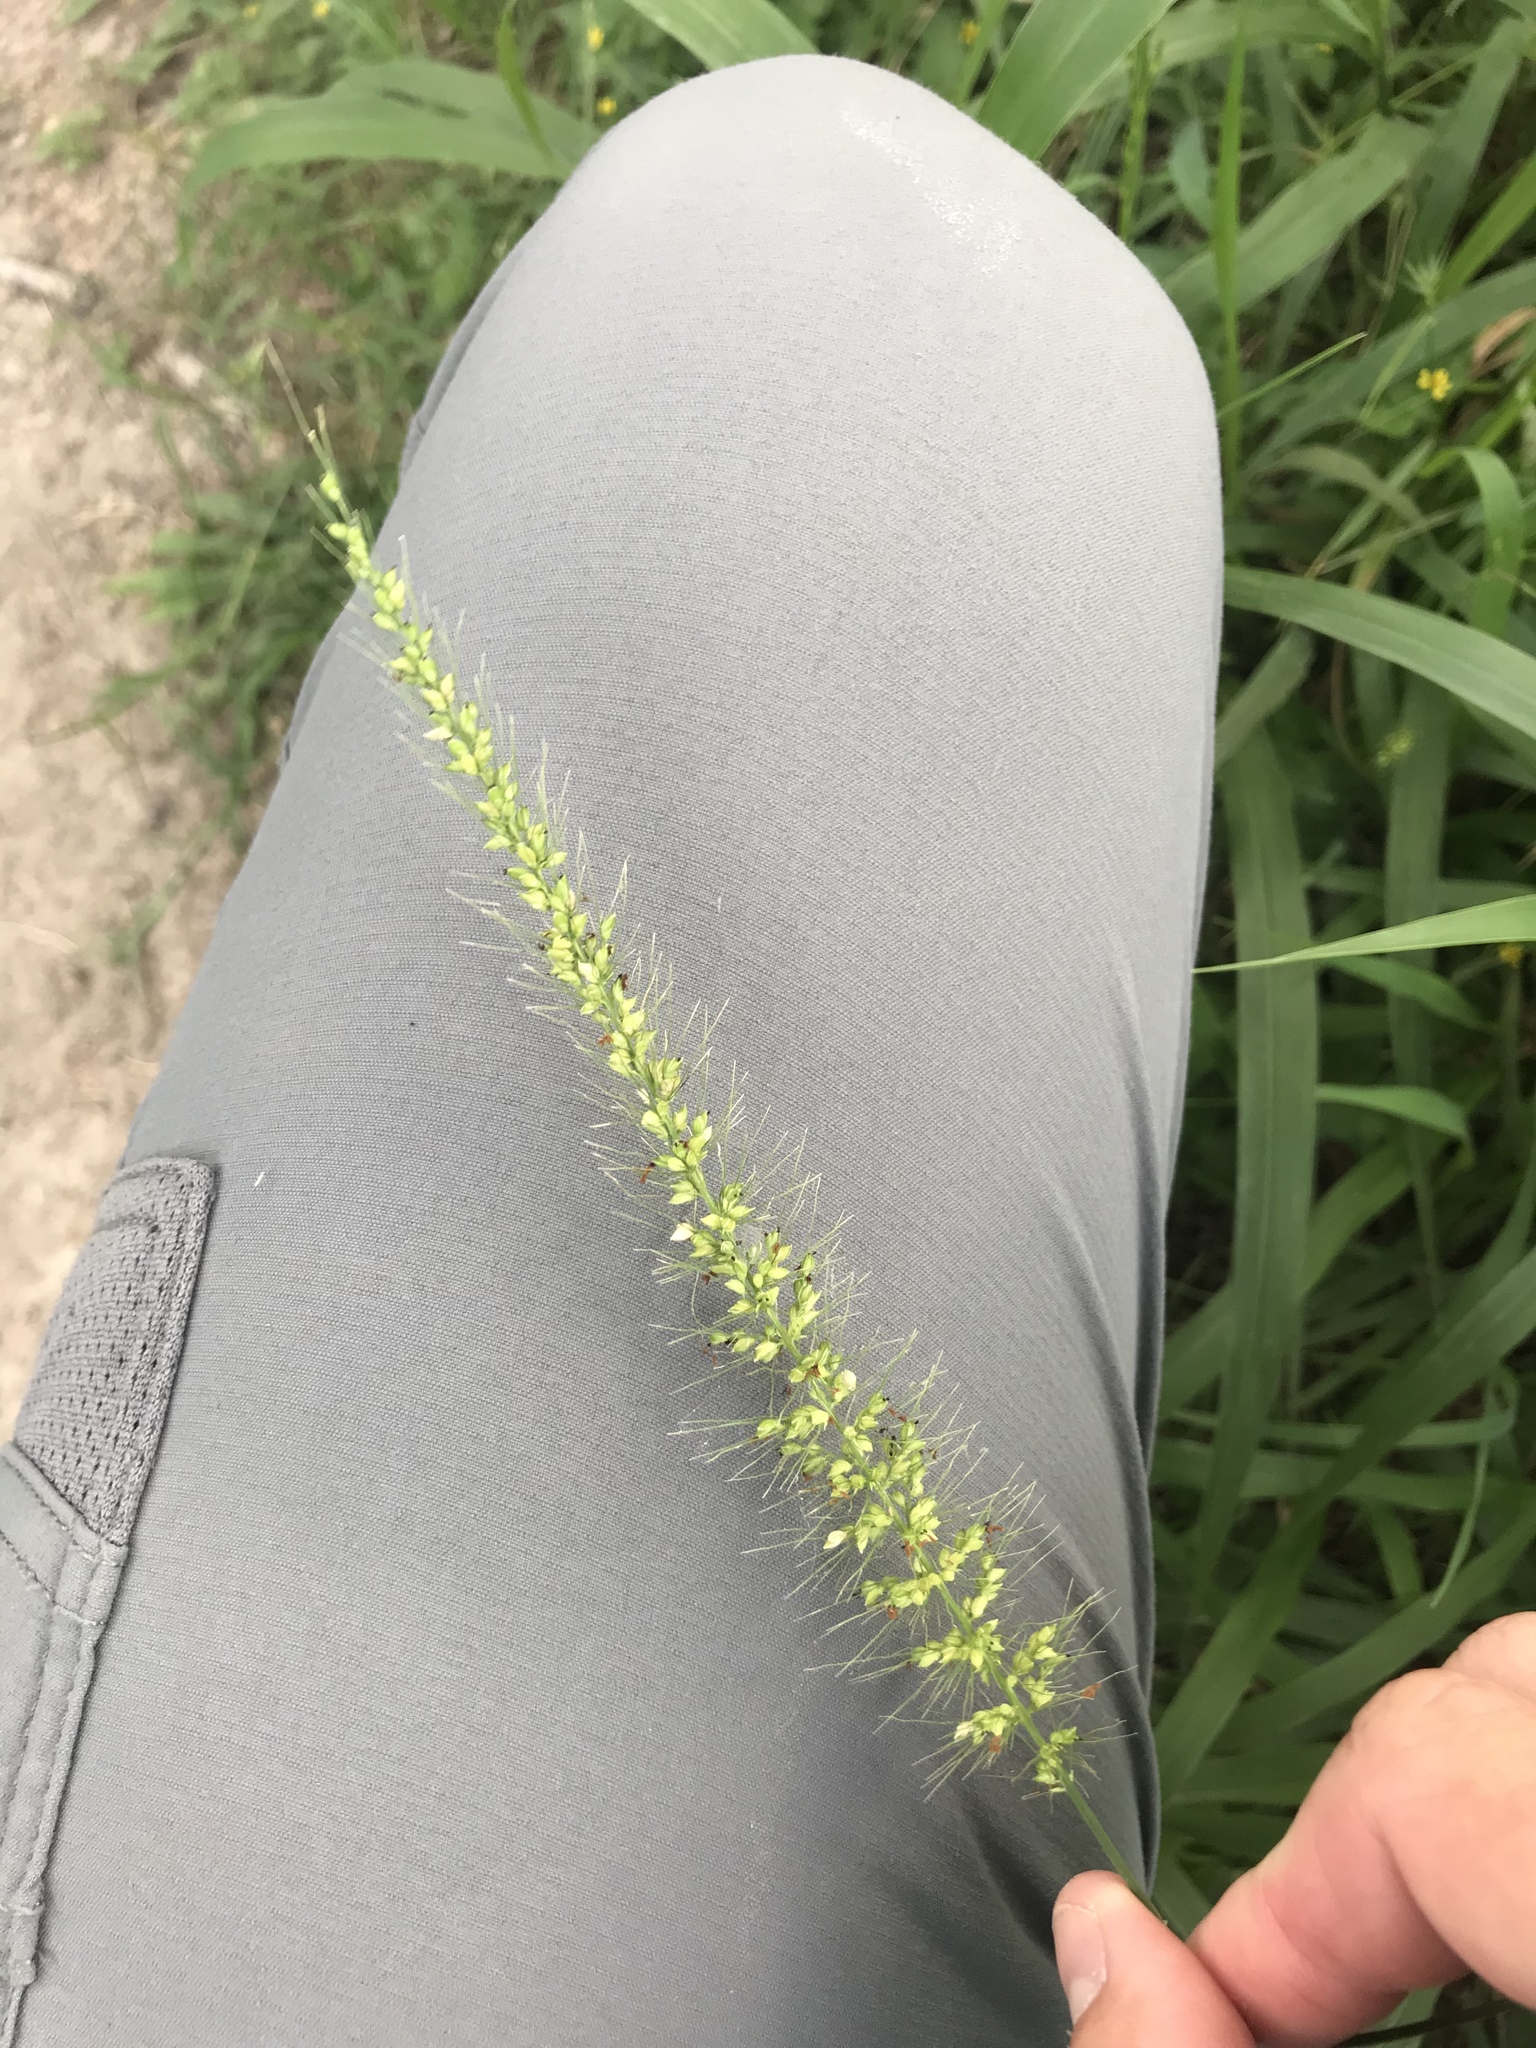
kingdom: Plantae
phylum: Tracheophyta
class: Liliopsida
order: Poales
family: Poaceae
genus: Setaria
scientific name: Setaria scheelei
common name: Southwestern bristle grass
